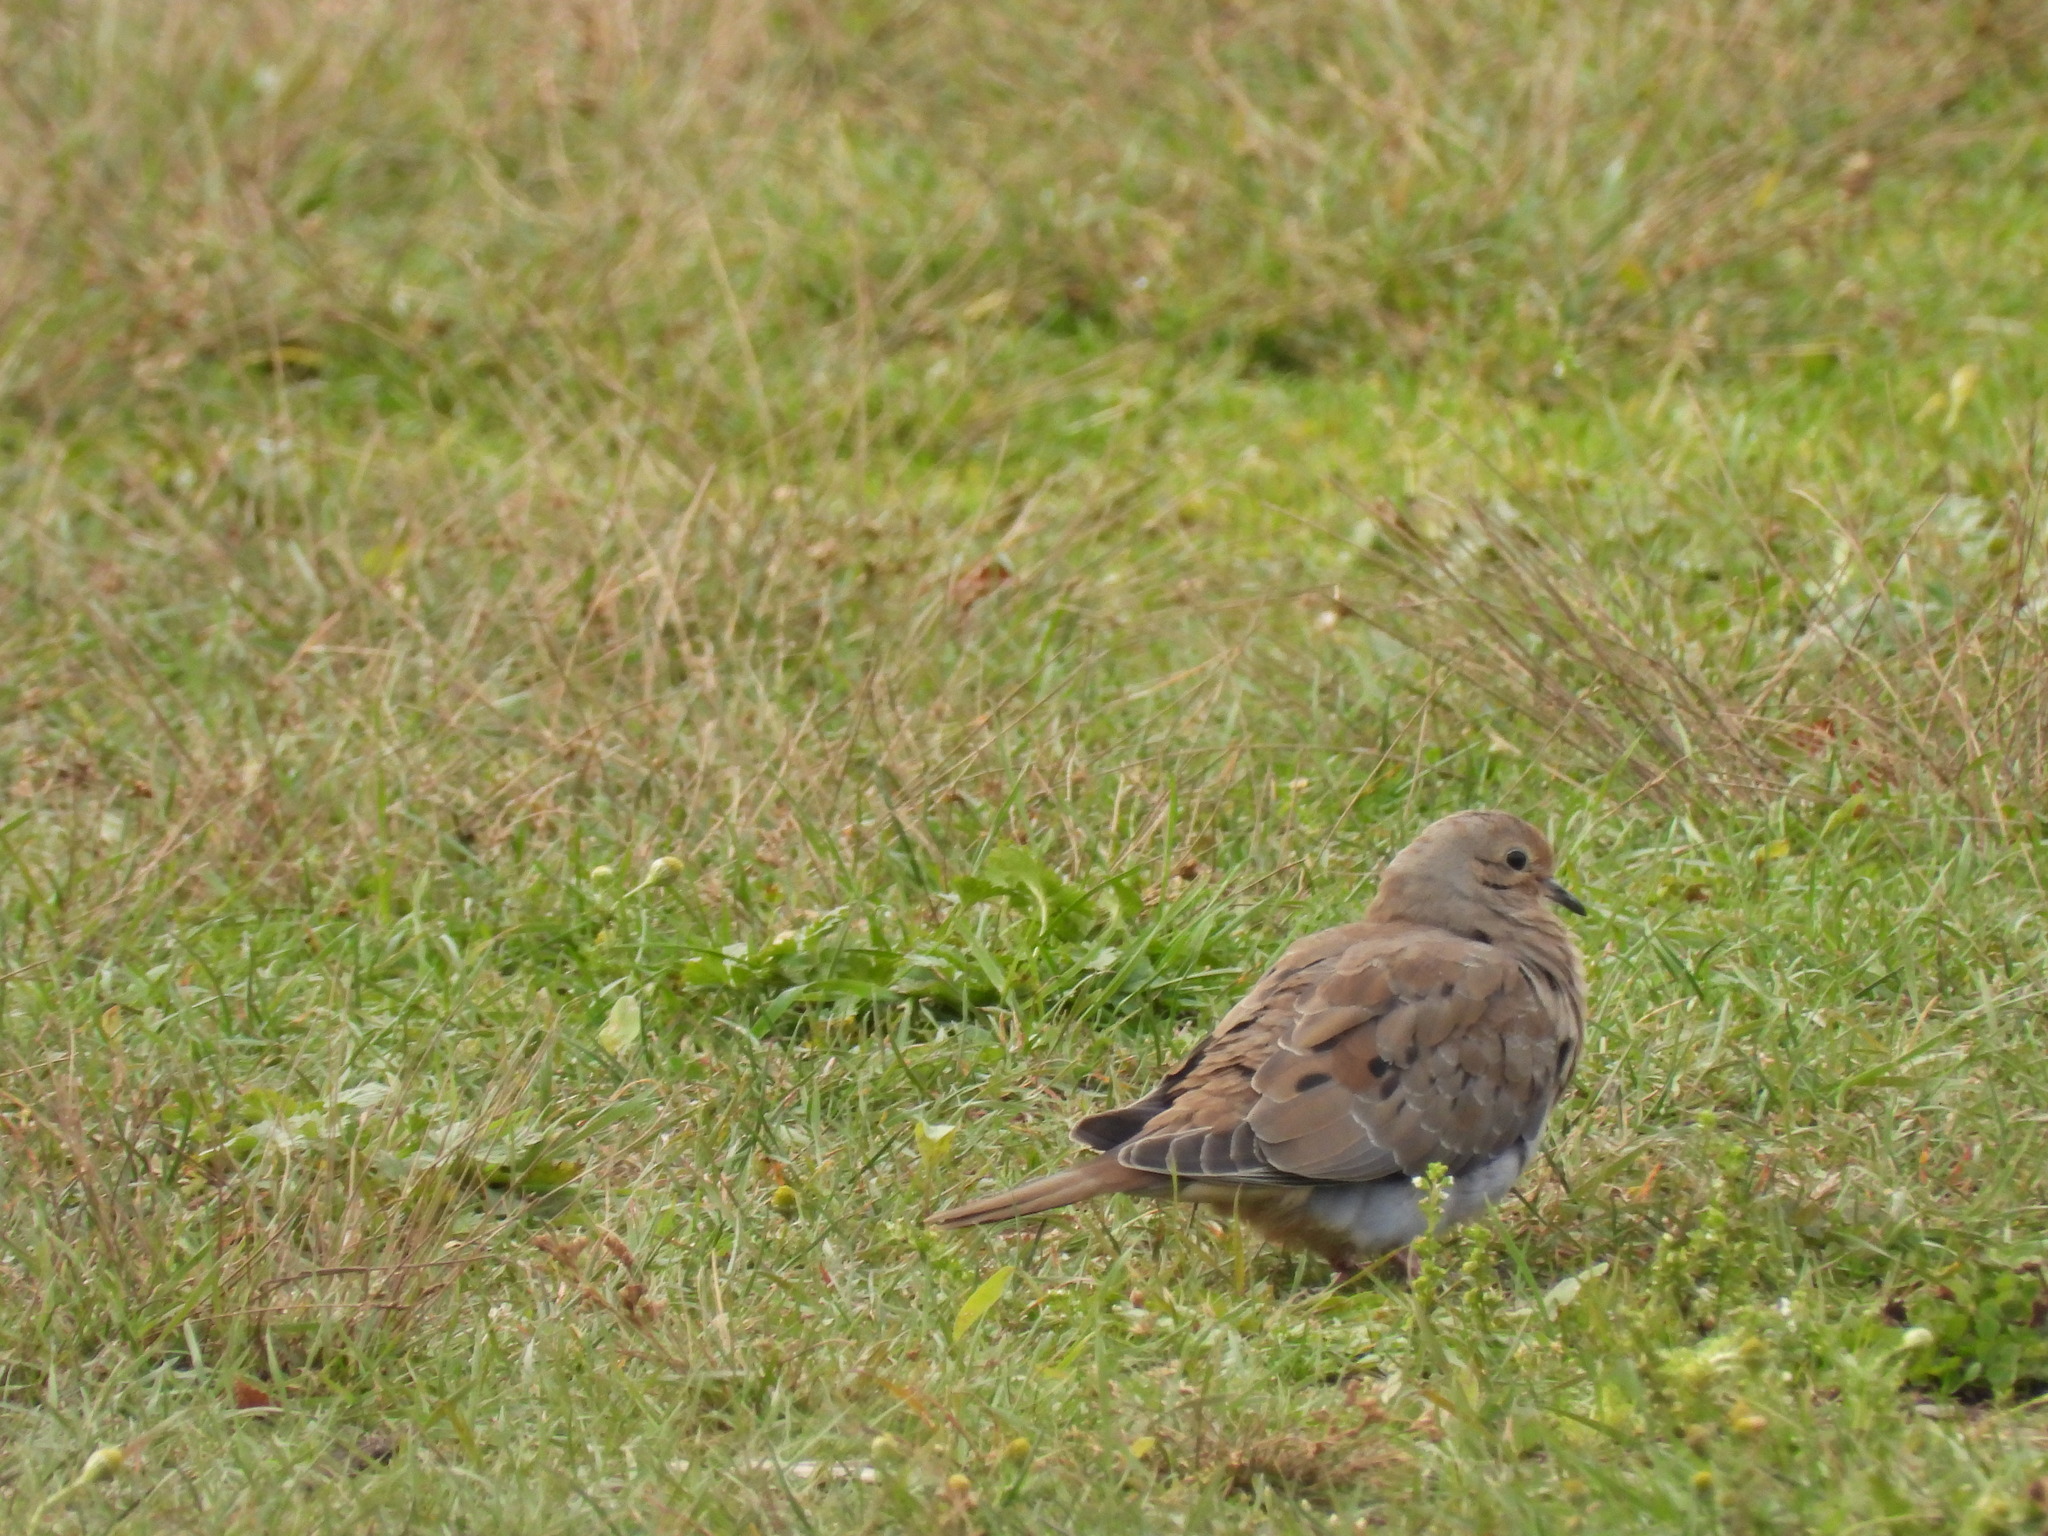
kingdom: Animalia
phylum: Chordata
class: Aves
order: Columbiformes
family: Columbidae
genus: Zenaida
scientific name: Zenaida macroura
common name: Mourning dove
